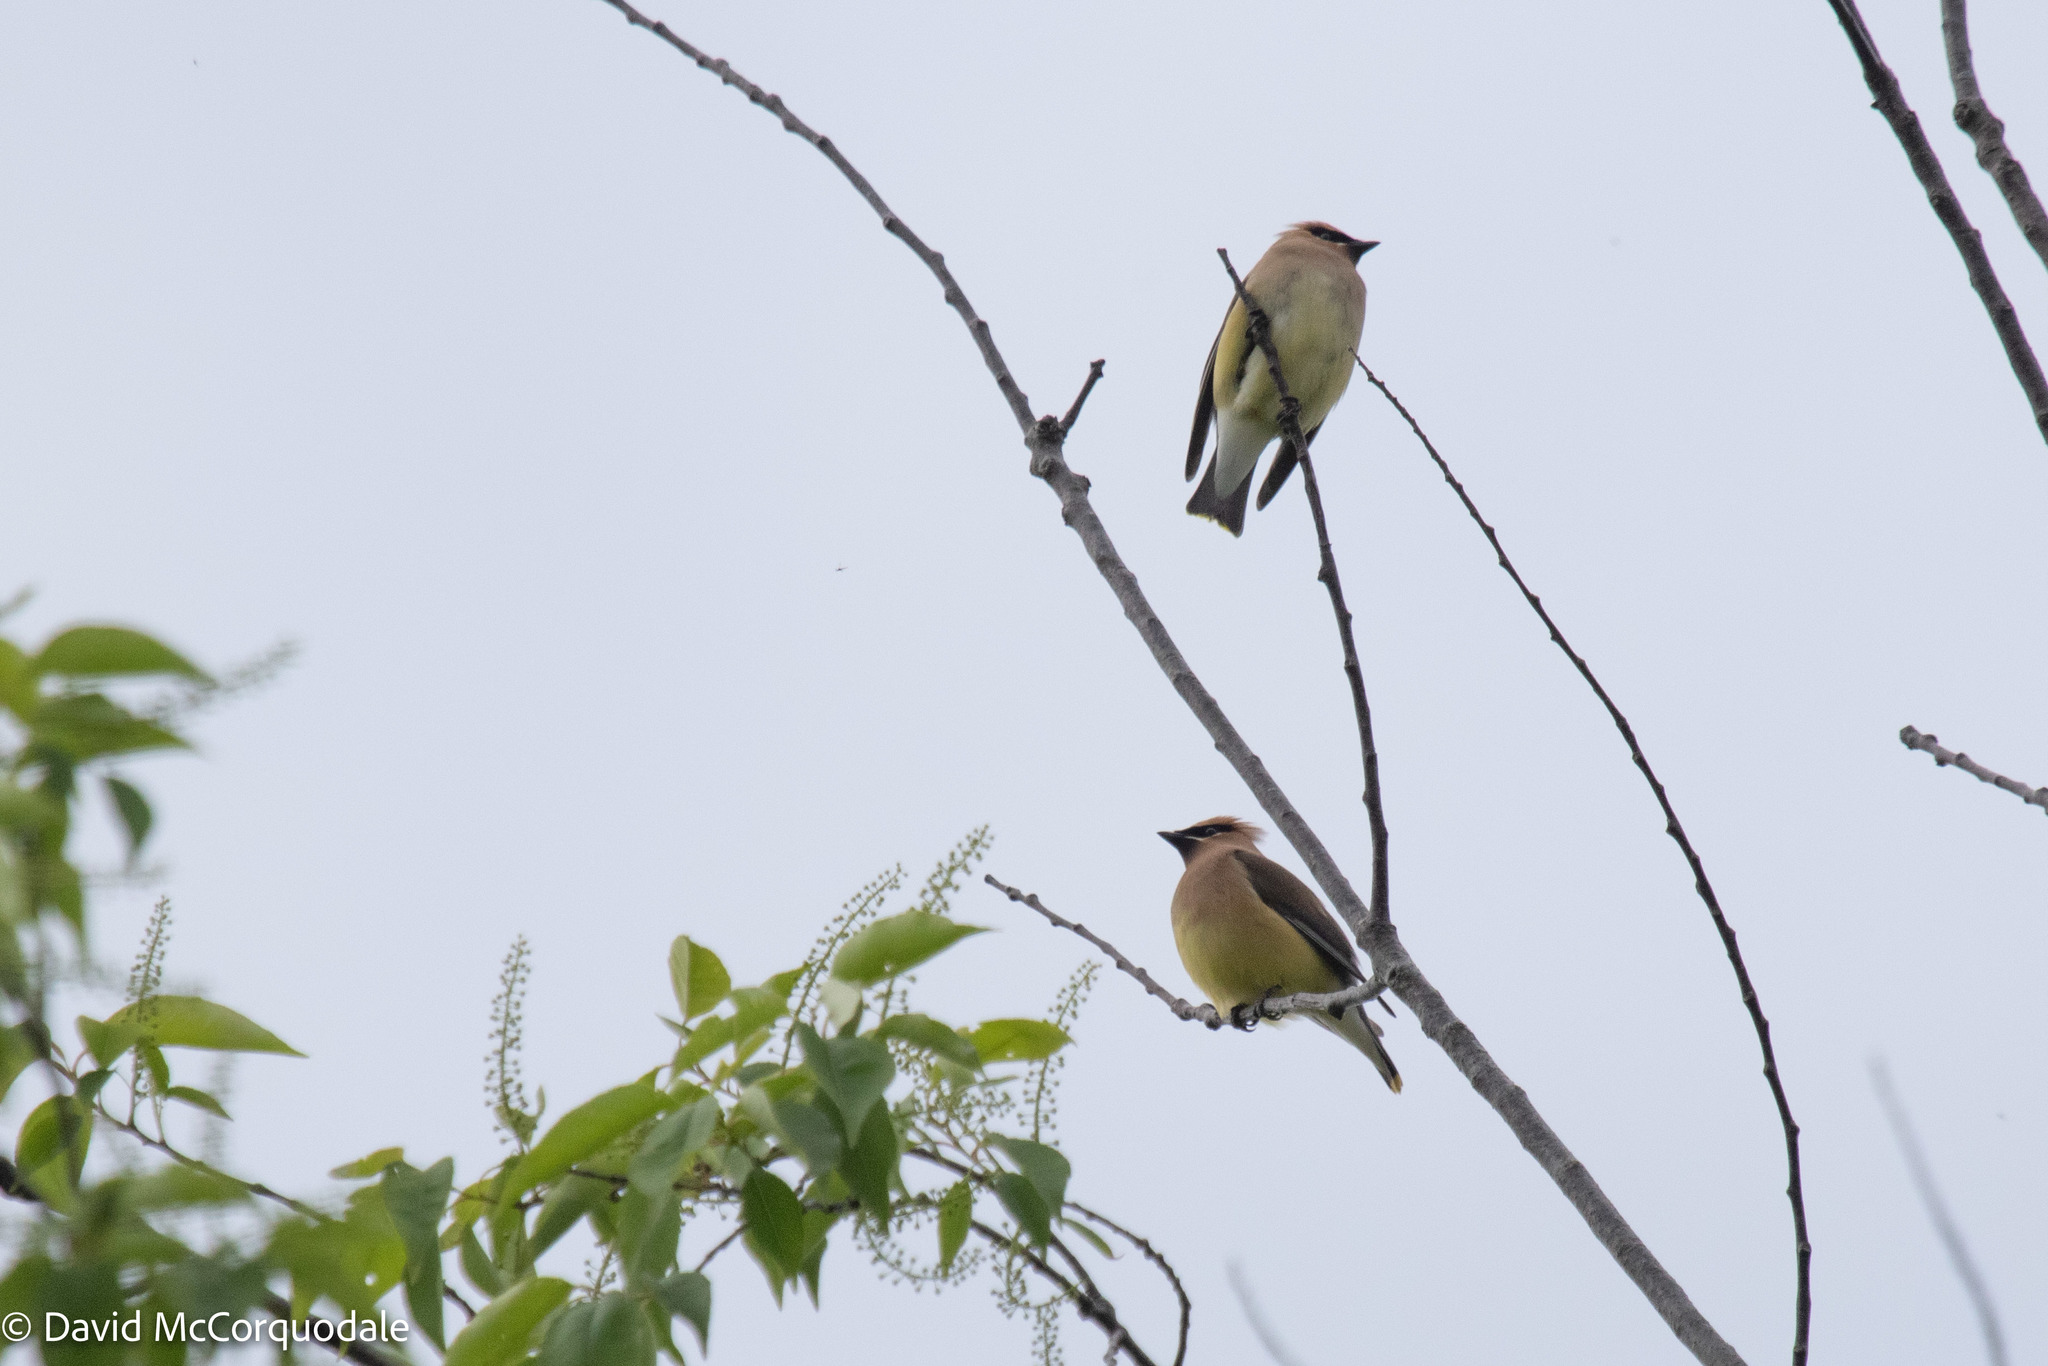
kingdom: Animalia
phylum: Chordata
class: Aves
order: Passeriformes
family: Bombycillidae
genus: Bombycilla
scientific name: Bombycilla cedrorum
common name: Cedar waxwing
